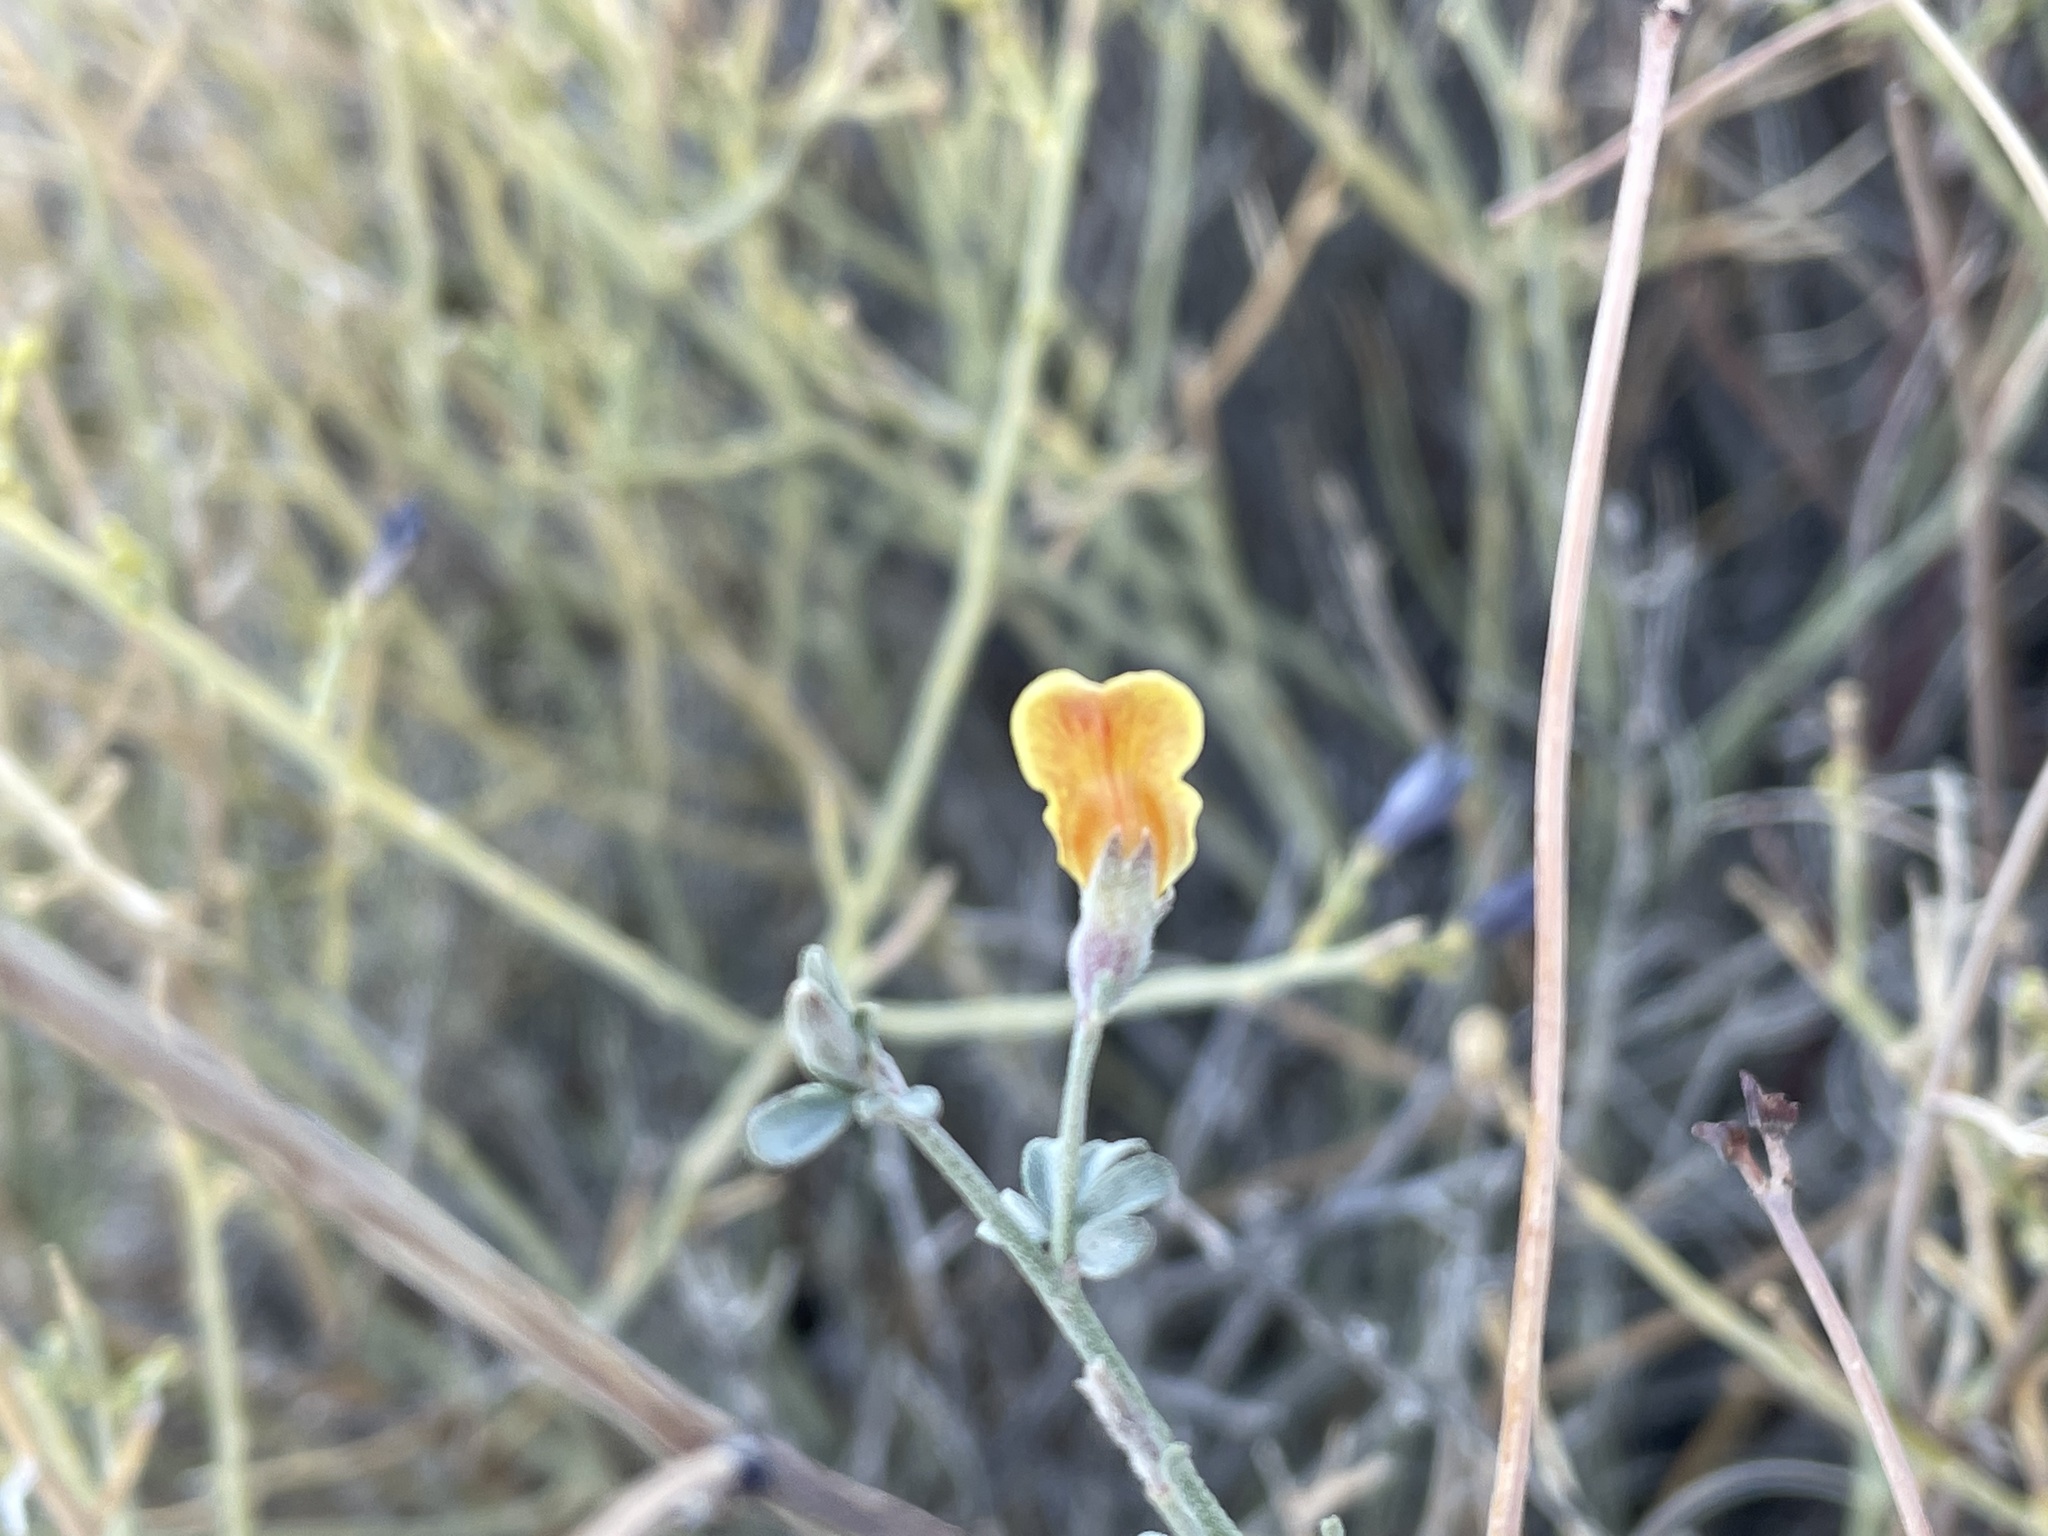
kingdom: Plantae
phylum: Tracheophyta
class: Magnoliopsida
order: Fabales
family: Fabaceae
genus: Acmispon
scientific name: Acmispon rigidus
